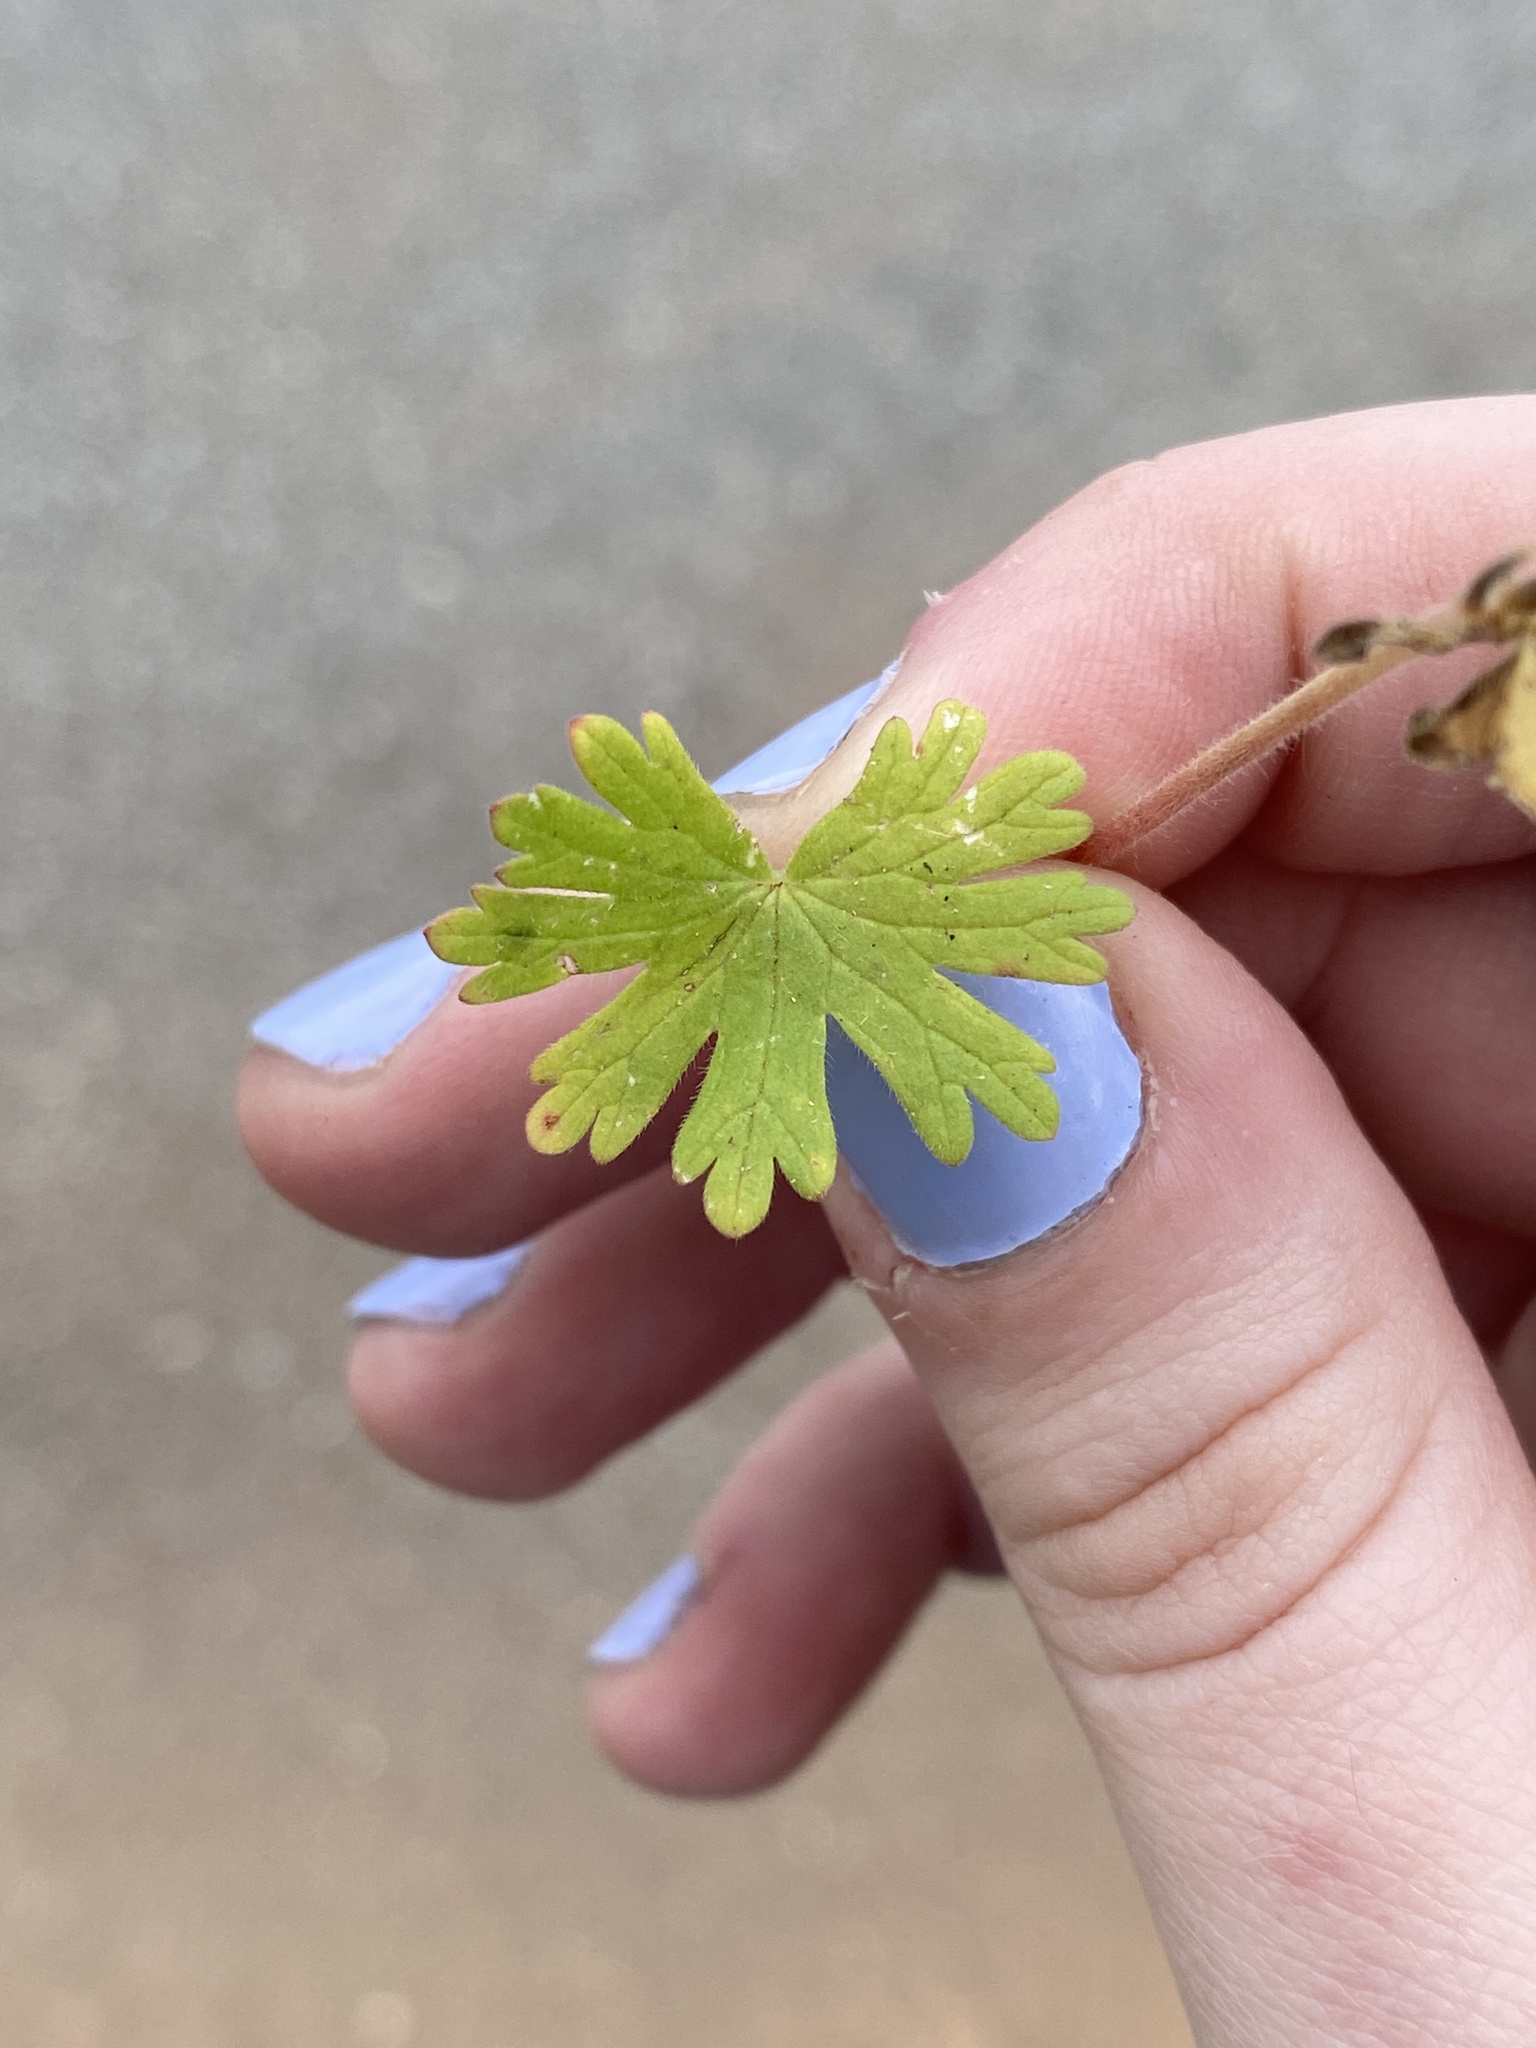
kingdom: Plantae
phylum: Tracheophyta
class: Magnoliopsida
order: Geraniales
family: Geraniaceae
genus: Geranium
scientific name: Geranium molle
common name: Dove's-foot crane's-bill
